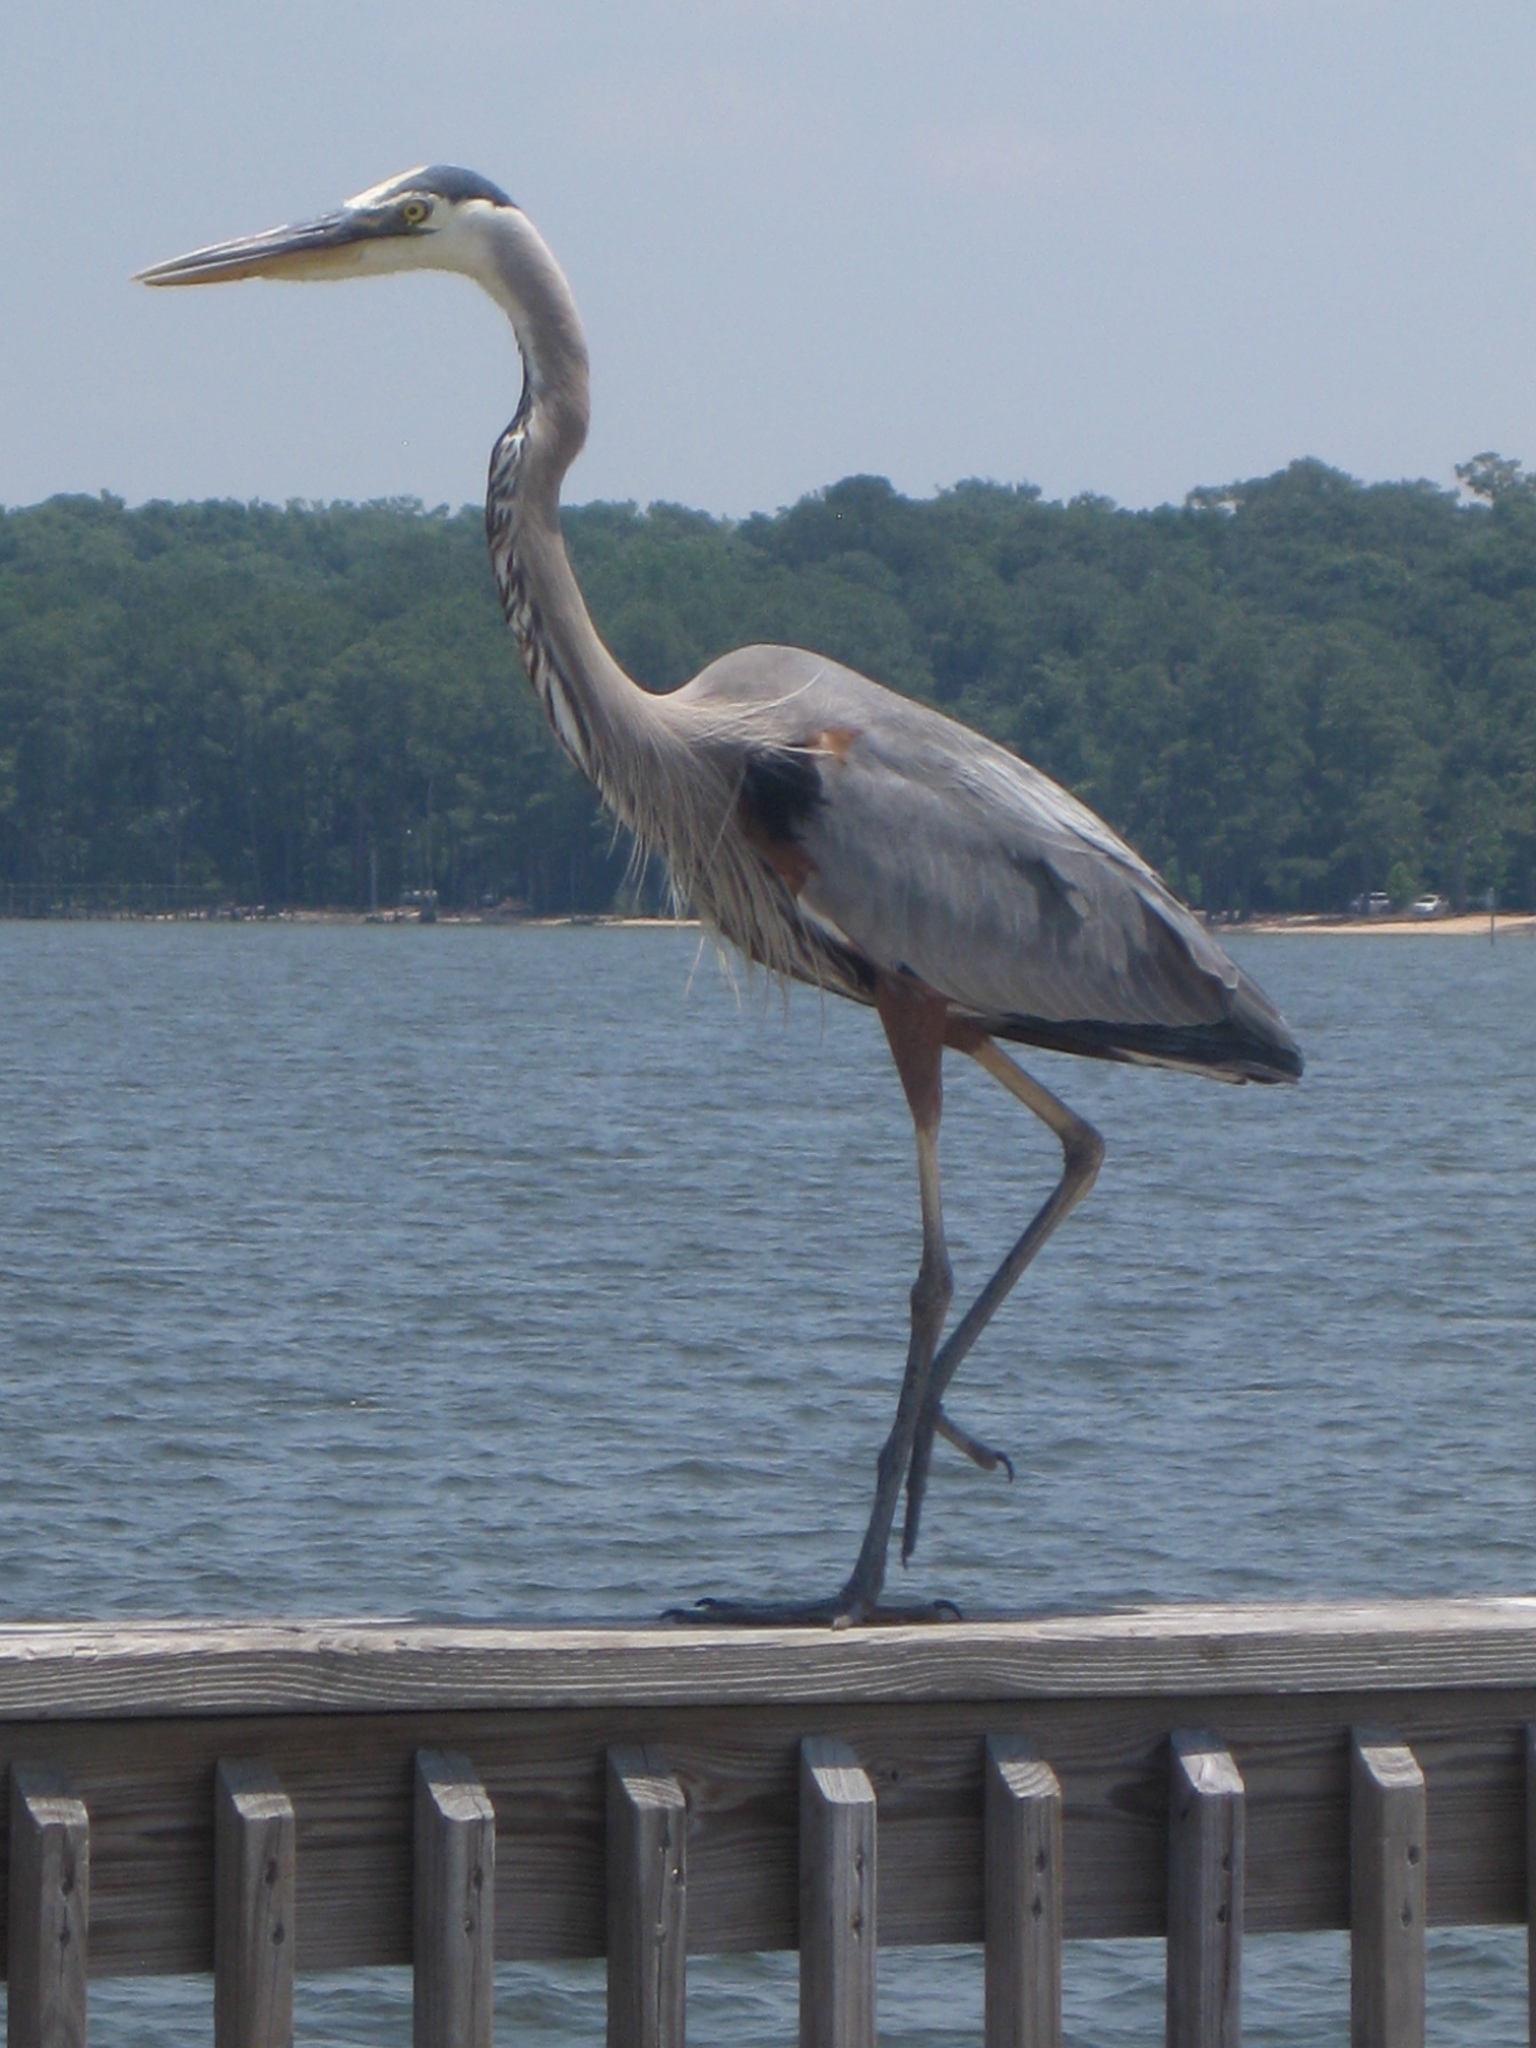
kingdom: Animalia
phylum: Chordata
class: Aves
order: Pelecaniformes
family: Ardeidae
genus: Ardea
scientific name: Ardea herodias
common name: Great blue heron
